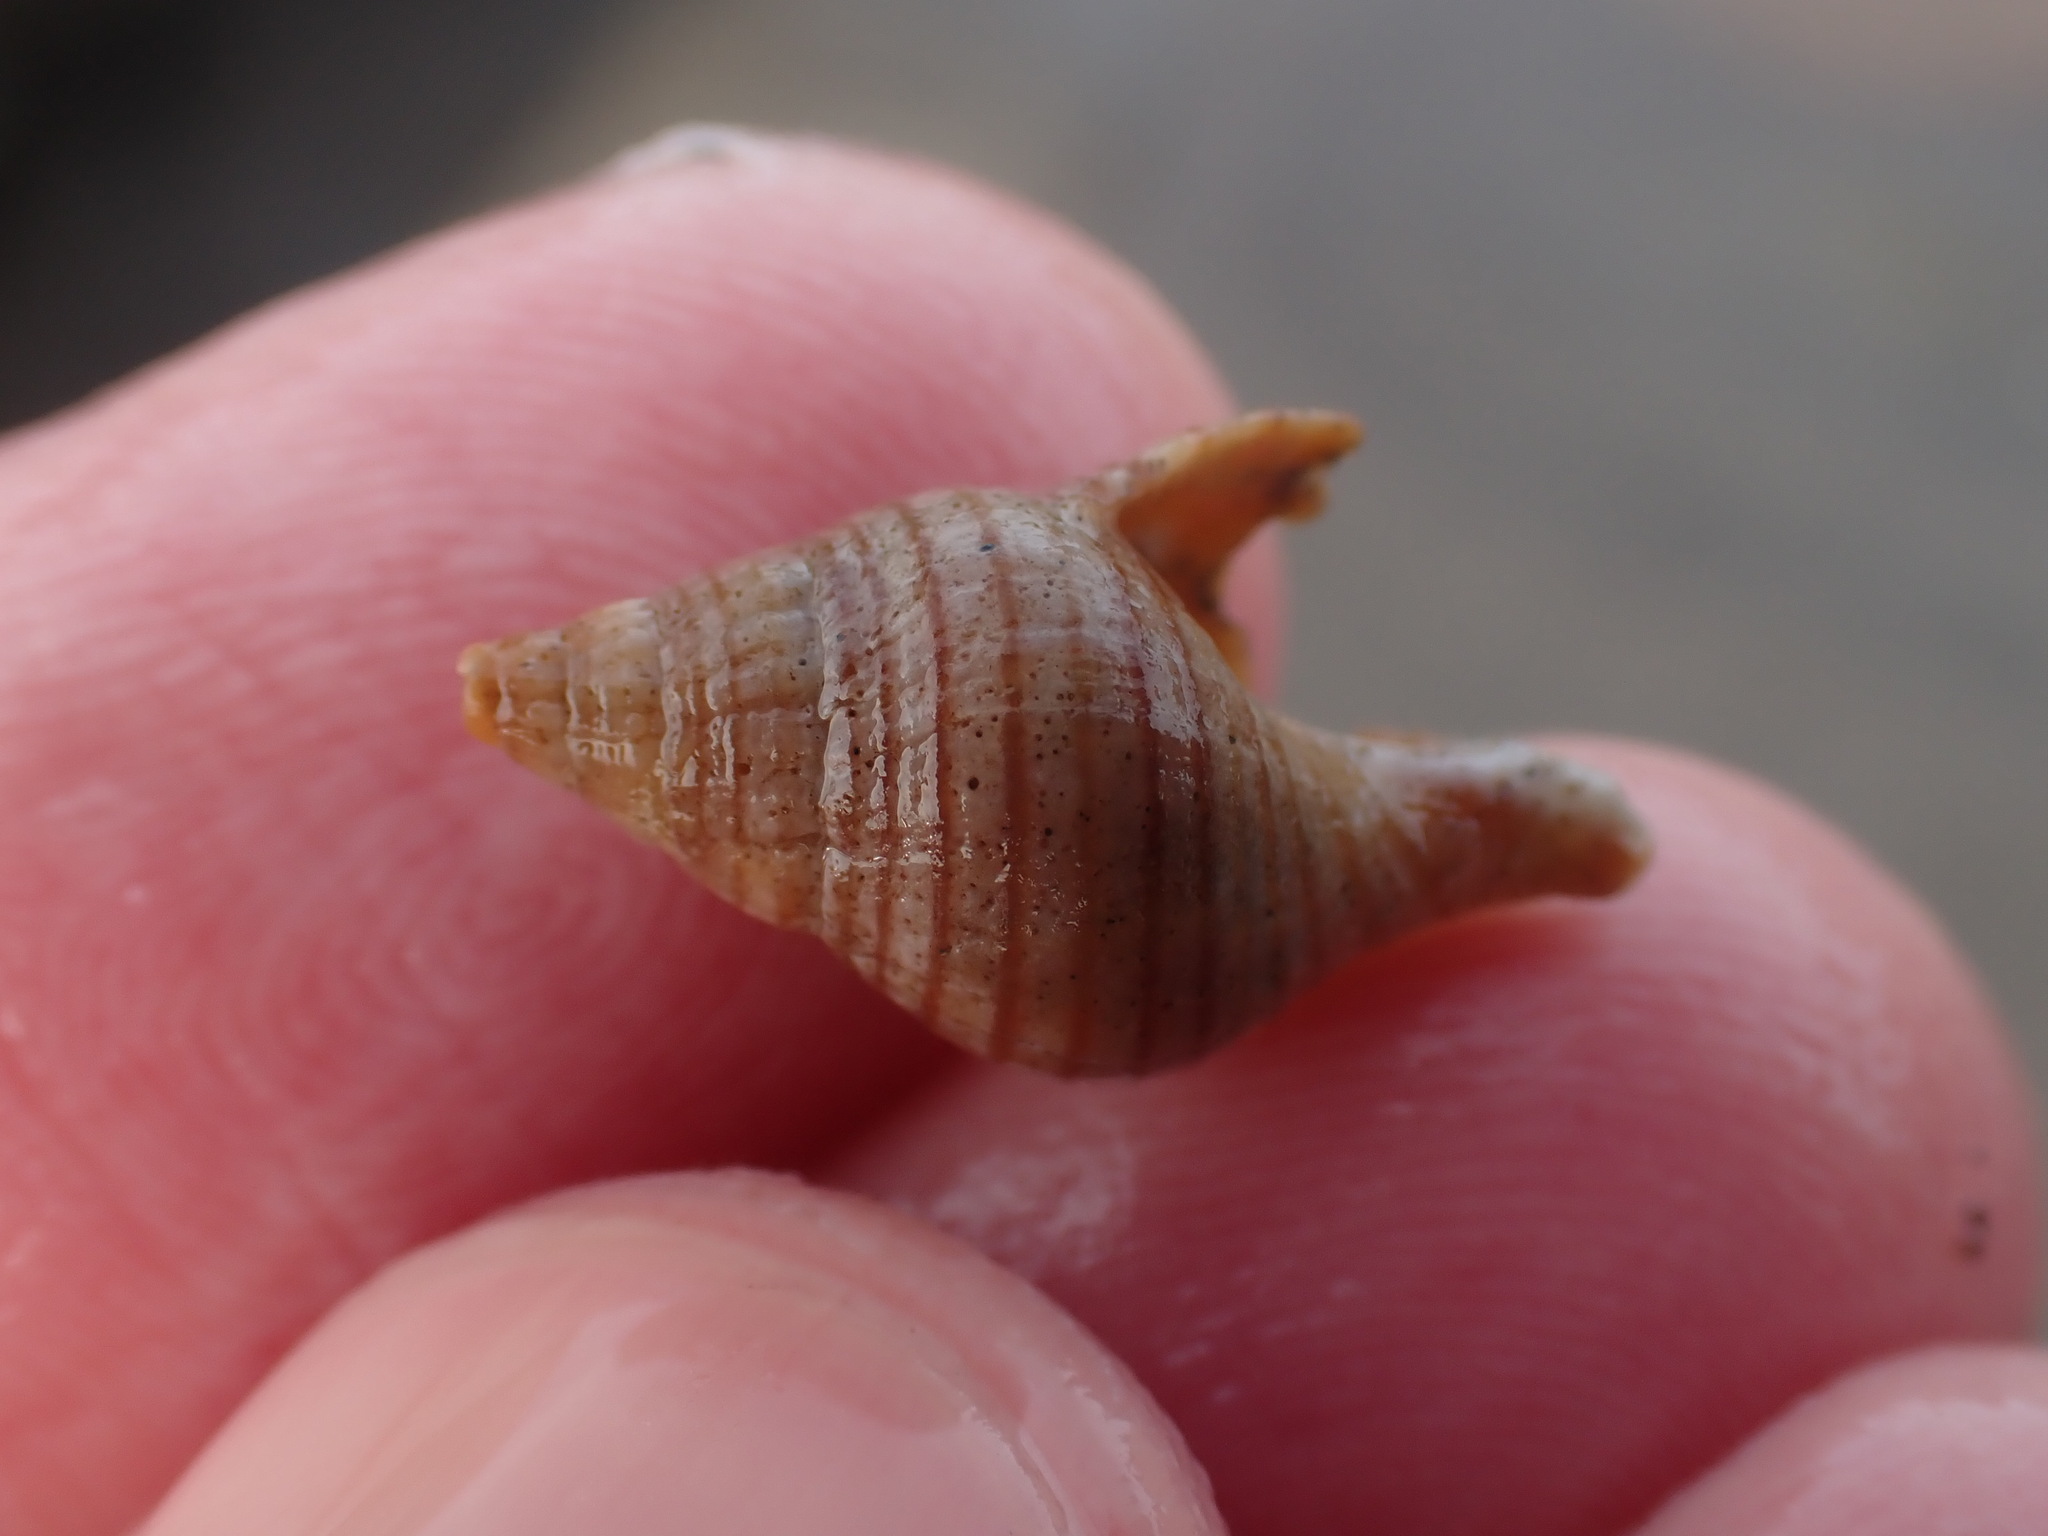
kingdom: Animalia
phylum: Mollusca
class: Gastropoda
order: Neogastropoda
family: Tudiclidae
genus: Buccinulum
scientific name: Buccinulum linea
